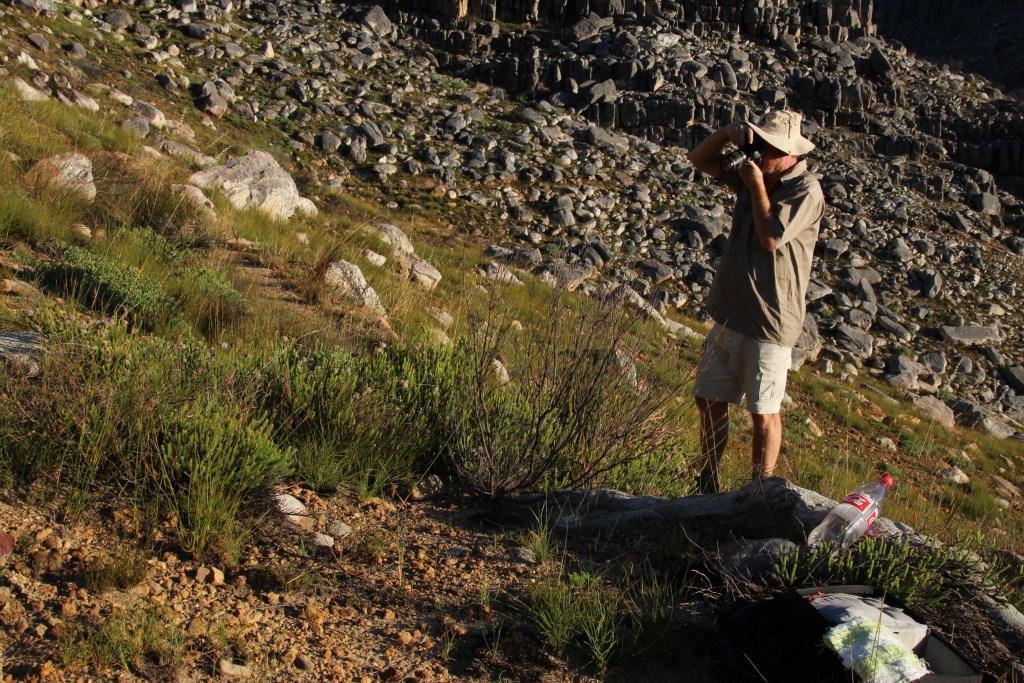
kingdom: Plantae
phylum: Tracheophyta
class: Magnoliopsida
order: Proteales
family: Proteaceae
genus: Sorocephalus
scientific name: Sorocephalus lanatus
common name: Common clusterhead
